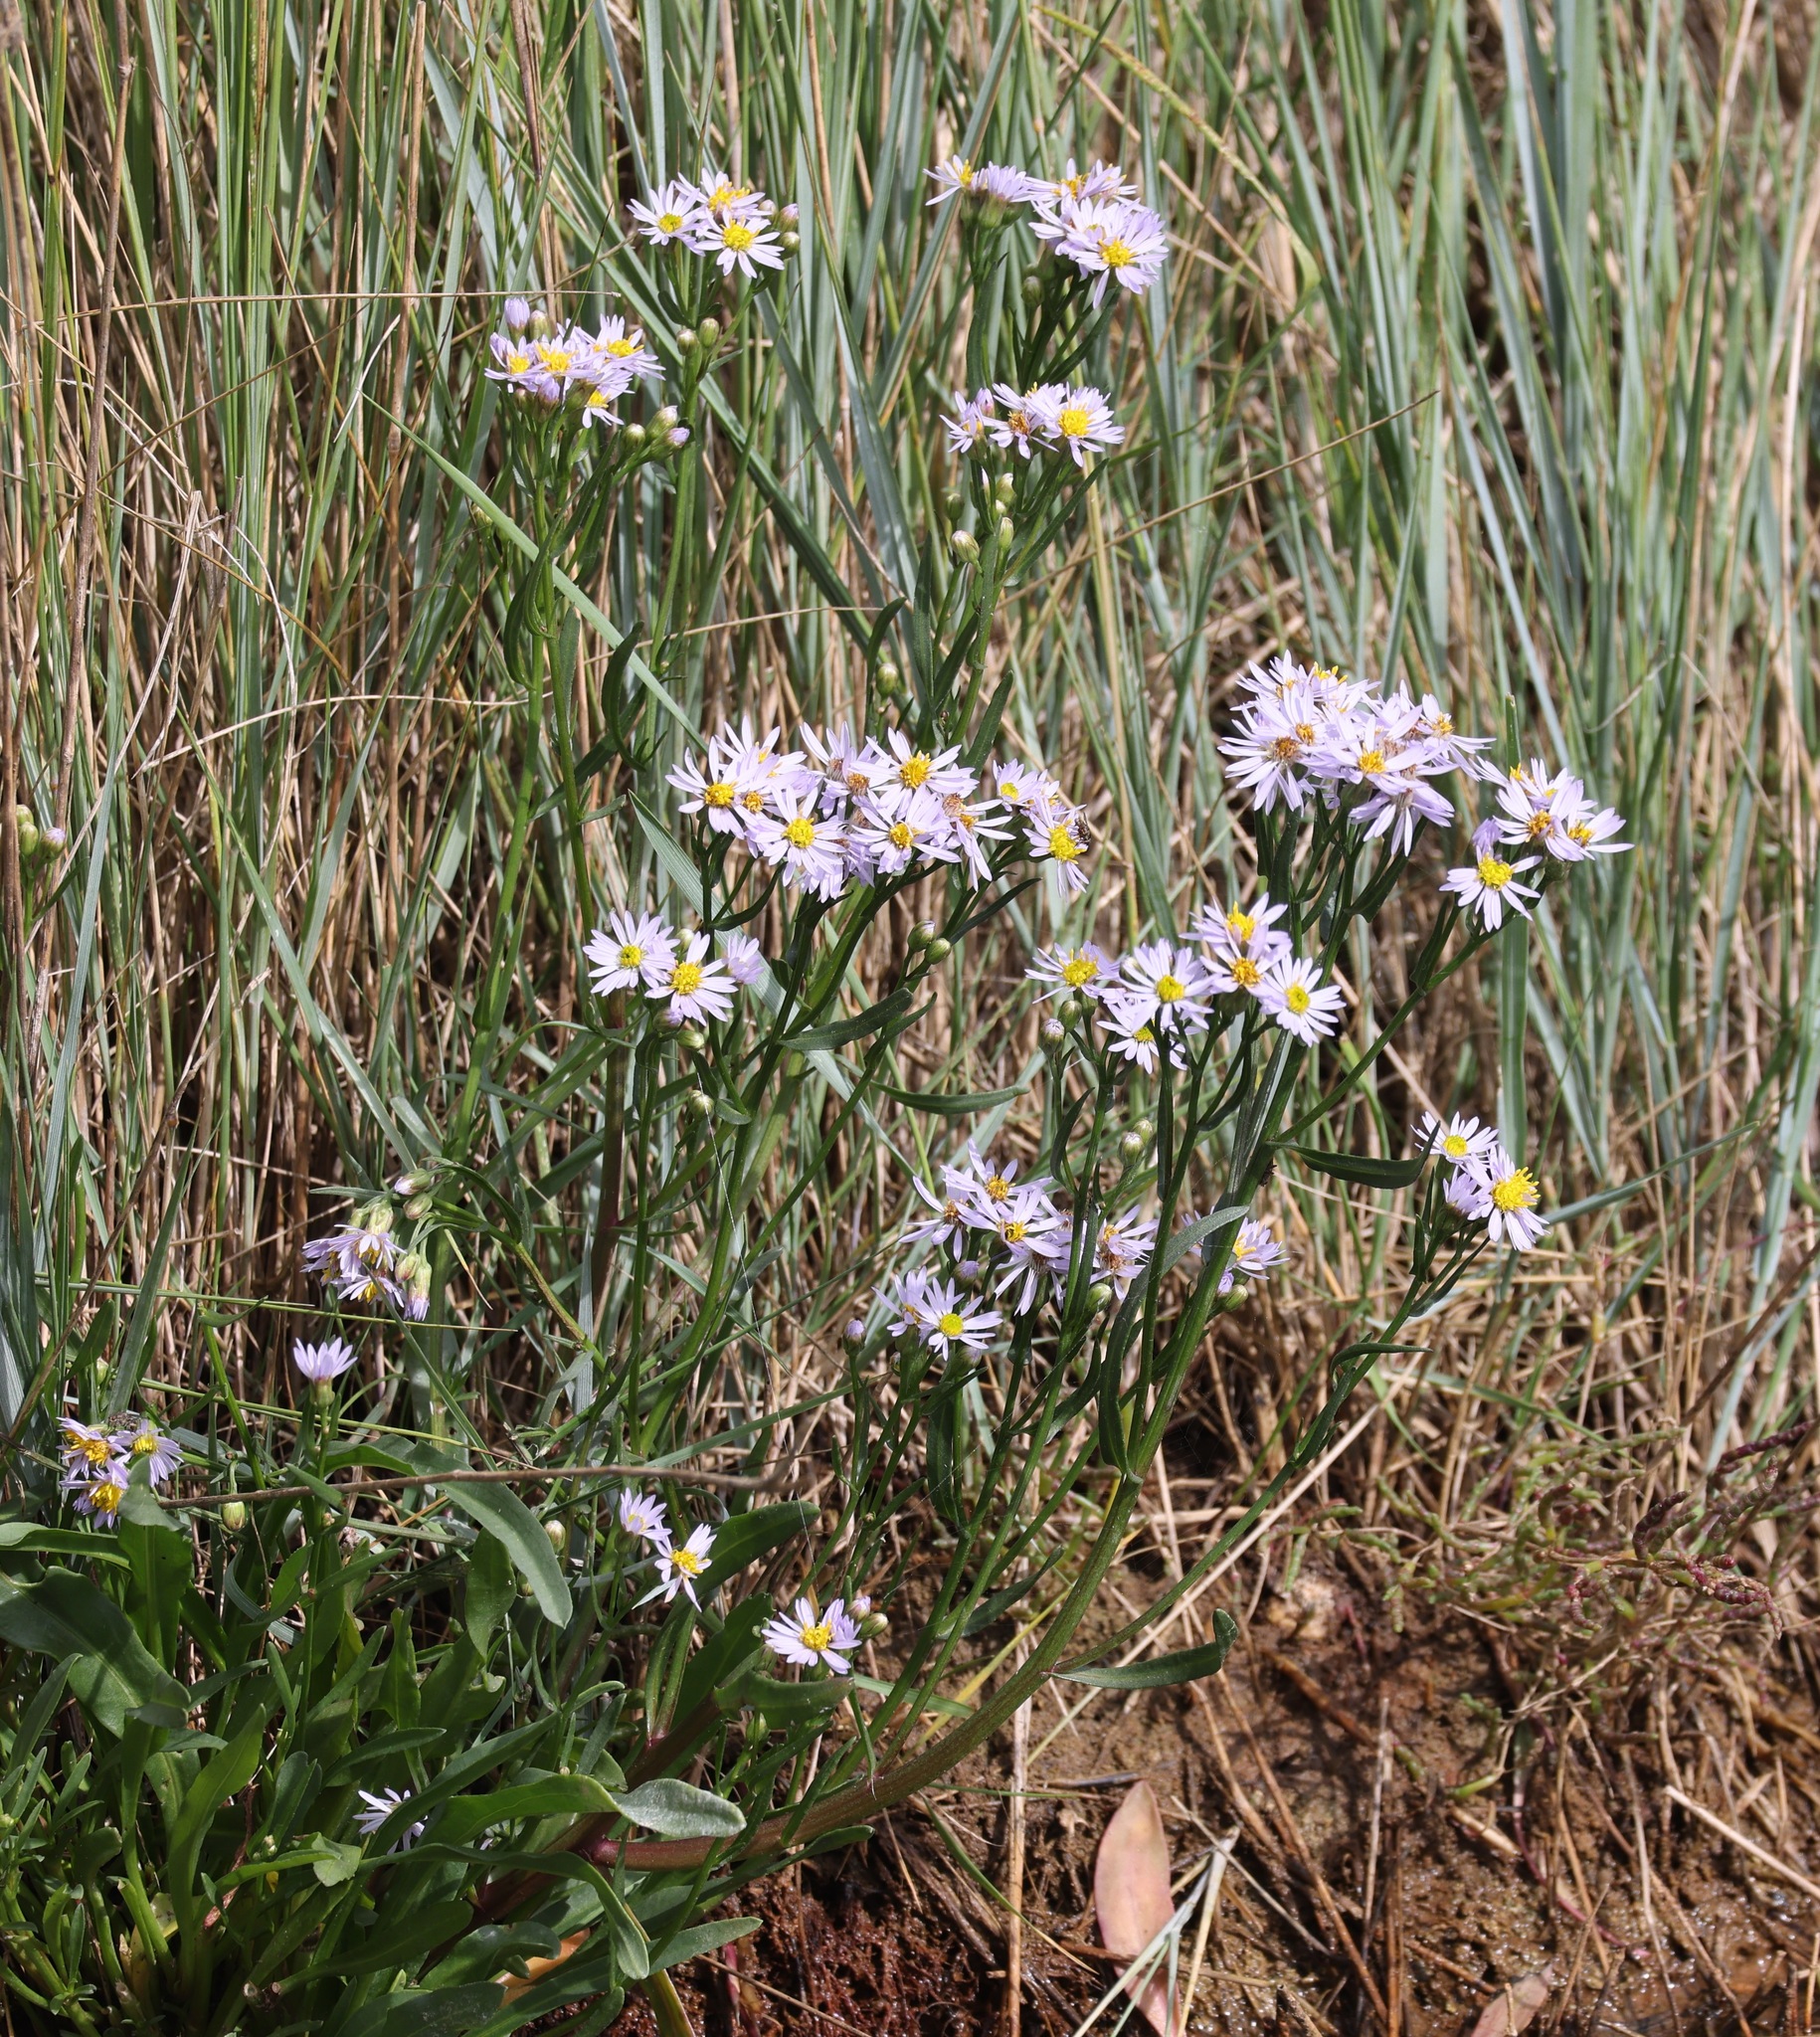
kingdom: Plantae
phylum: Tracheophyta
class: Magnoliopsida
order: Asterales
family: Asteraceae
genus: Tripolium
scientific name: Tripolium pannonicum
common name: Sea aster
